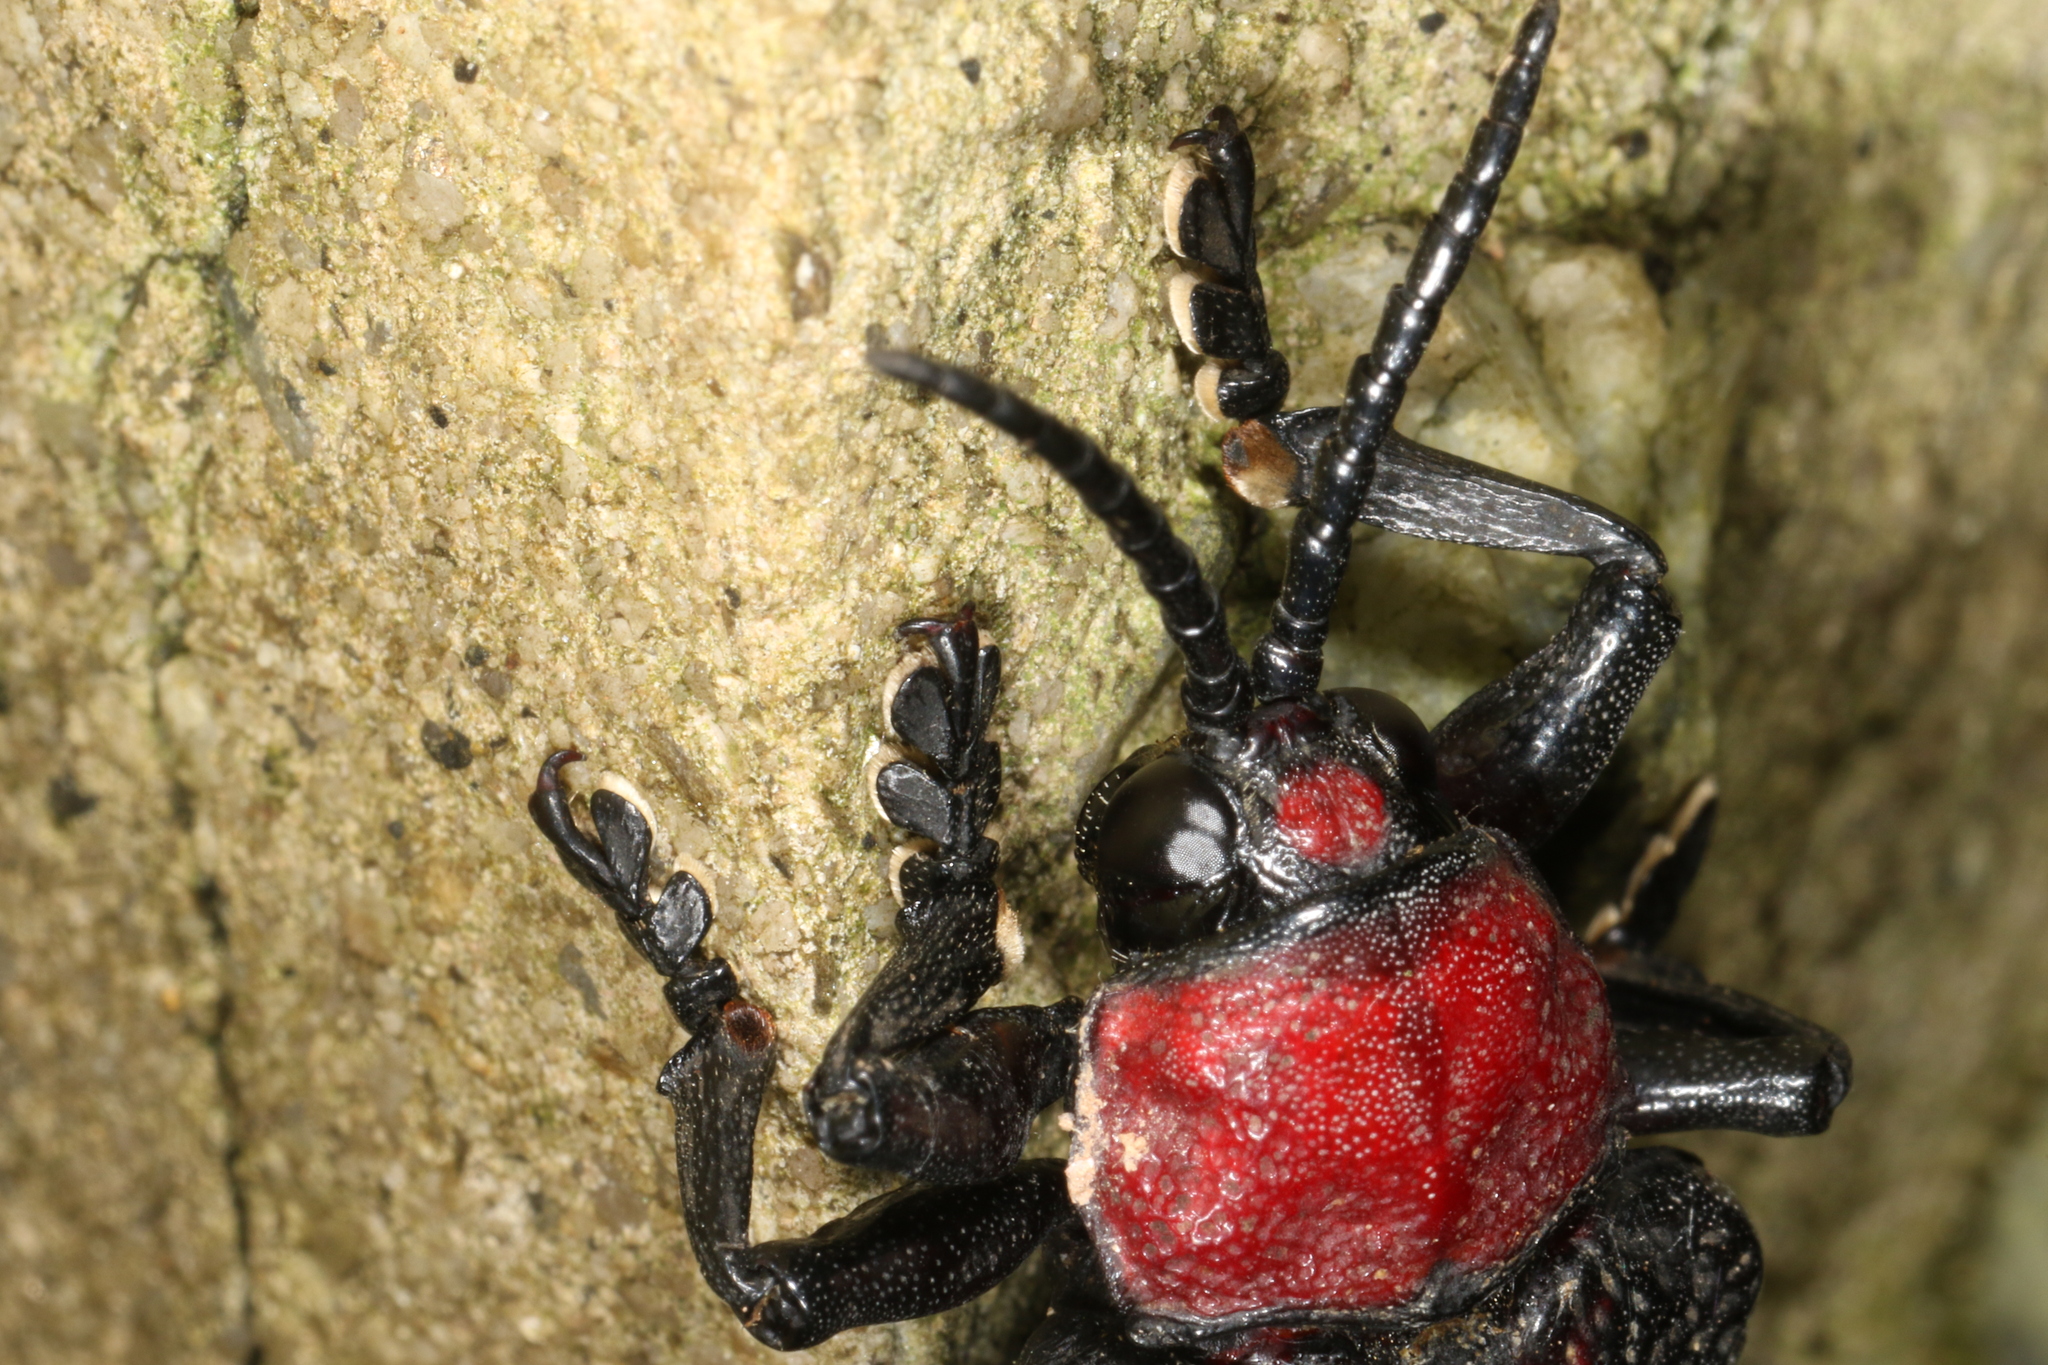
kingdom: Animalia
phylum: Arthropoda
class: Insecta
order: Coleoptera
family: Chrysomelidae
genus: Coraliomela
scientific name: Coraliomela aeneoplagiata
